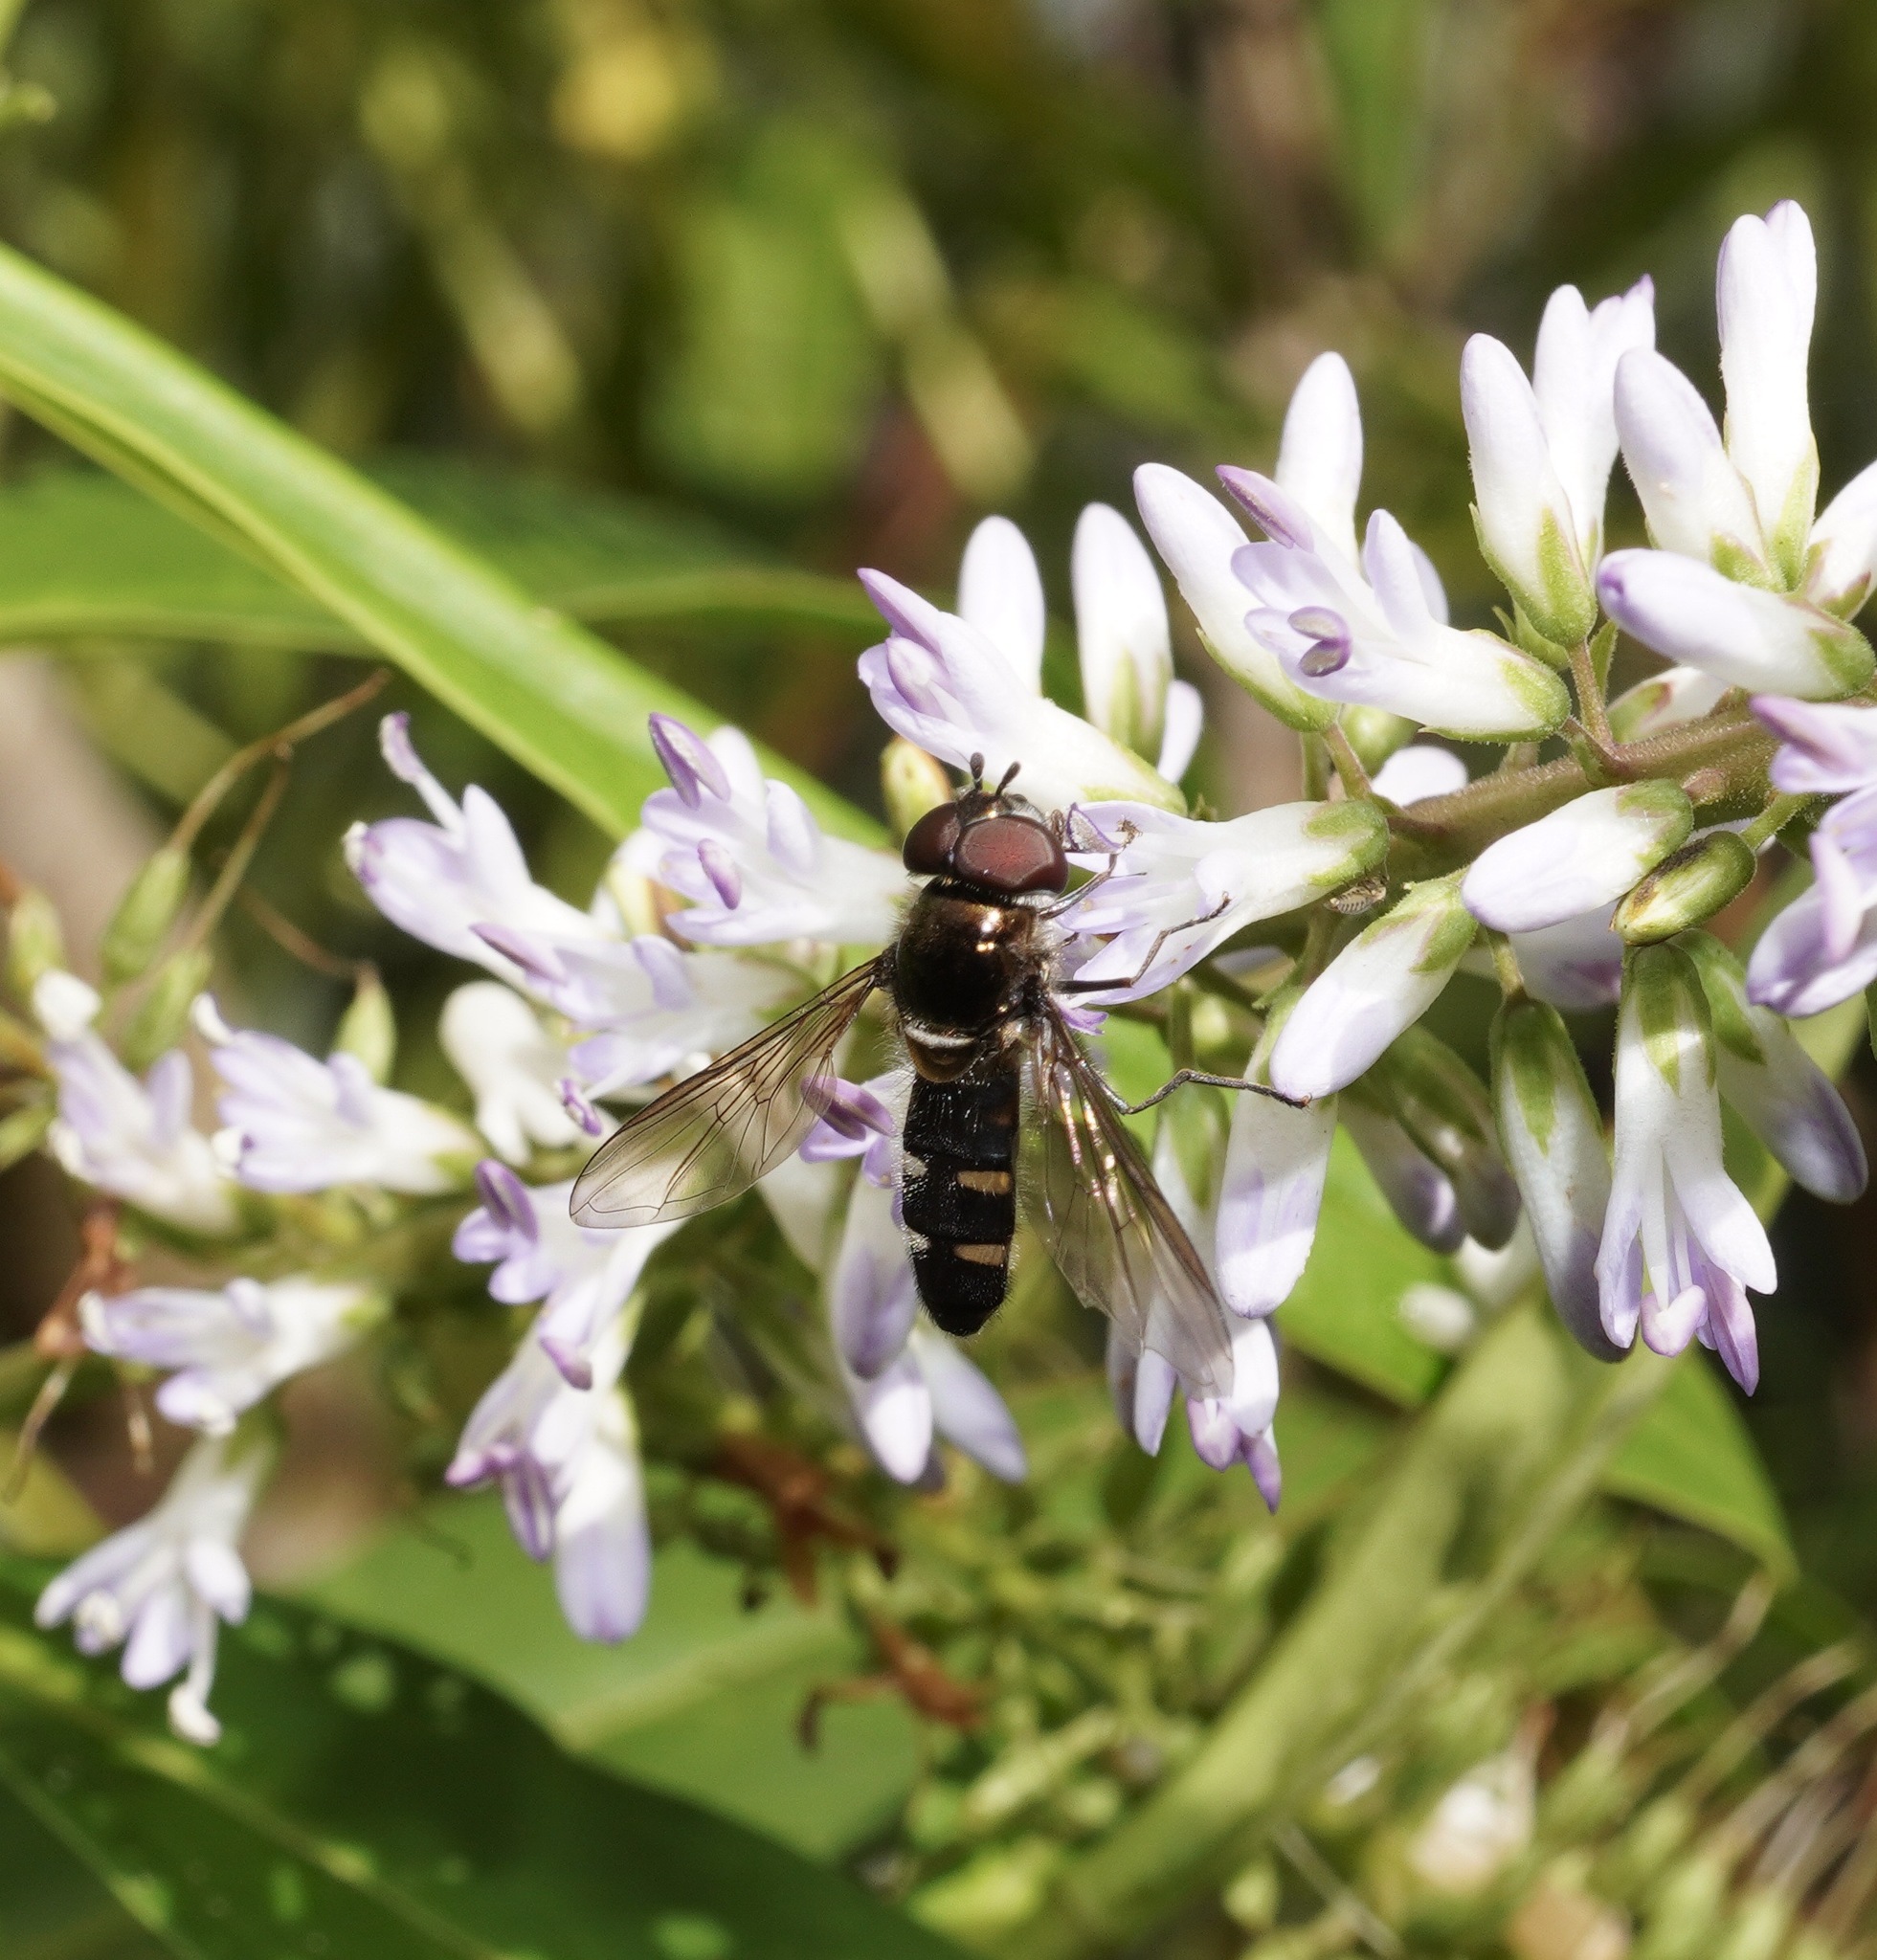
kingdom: Animalia
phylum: Arthropoda
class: Insecta
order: Diptera
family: Syrphidae
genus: Melangyna
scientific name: Melangyna novaezelandiae
